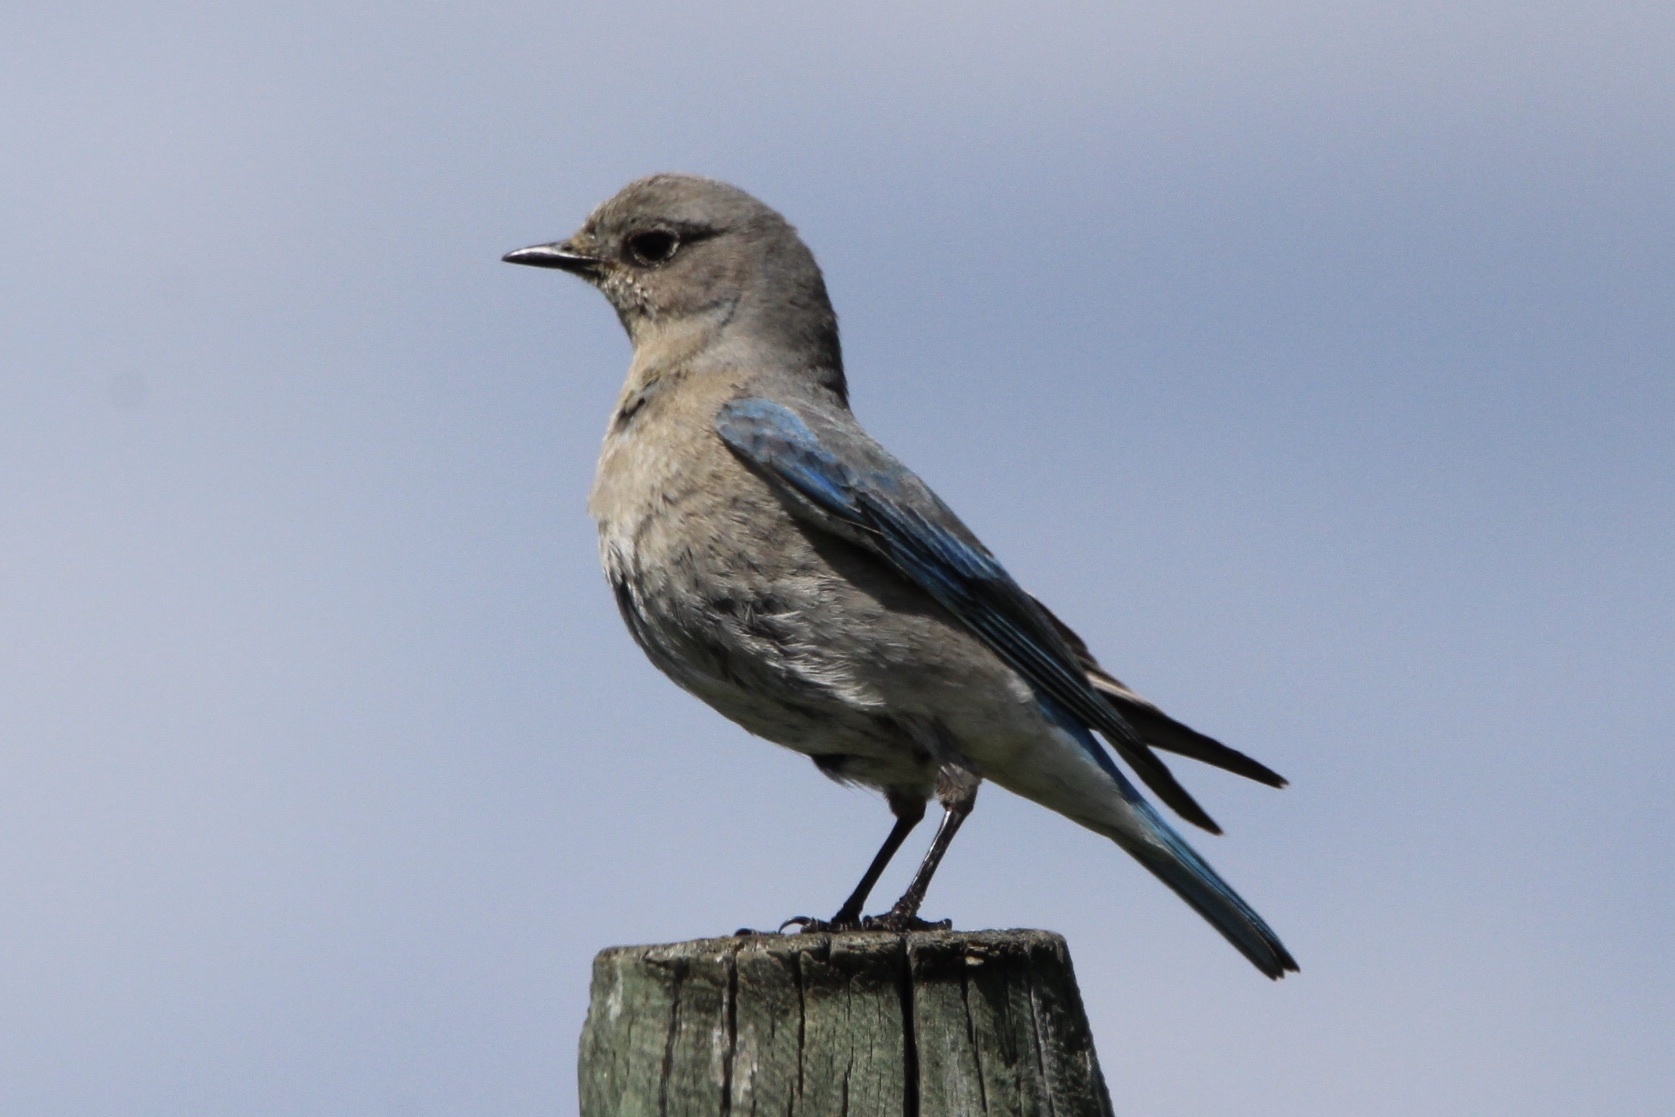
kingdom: Animalia
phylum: Chordata
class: Aves
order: Passeriformes
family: Turdidae
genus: Sialia
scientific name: Sialia currucoides
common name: Mountain bluebird
